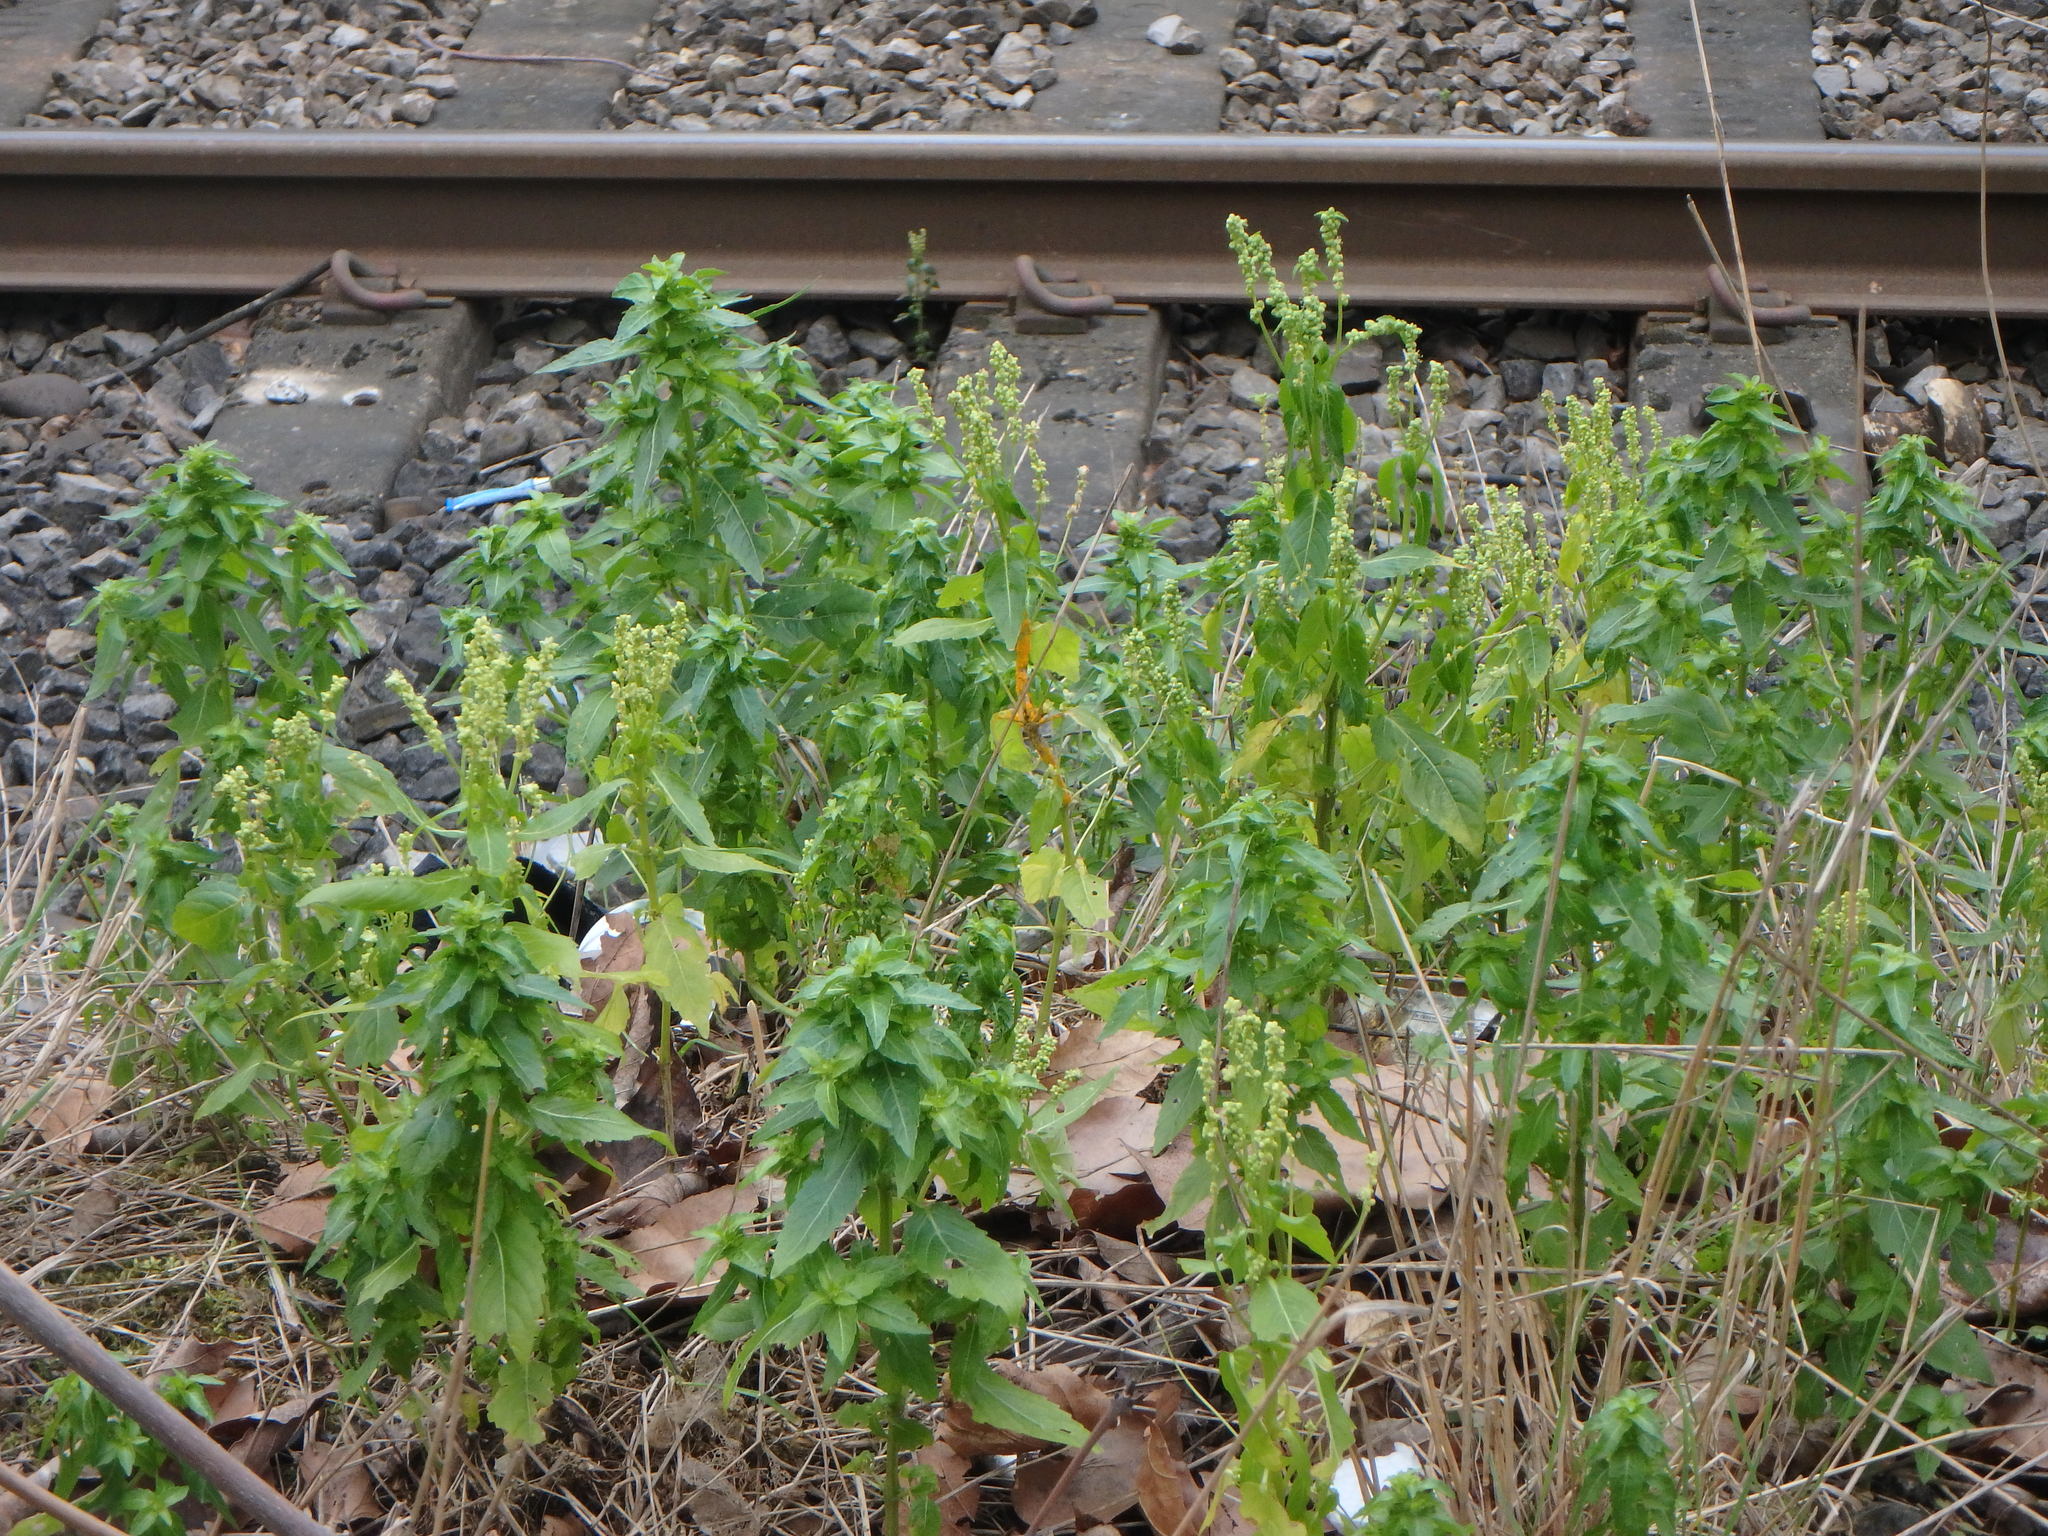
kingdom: Plantae
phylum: Tracheophyta
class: Magnoliopsida
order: Malpighiales
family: Euphorbiaceae
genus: Mercurialis
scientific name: Mercurialis annua
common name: Annual mercury
